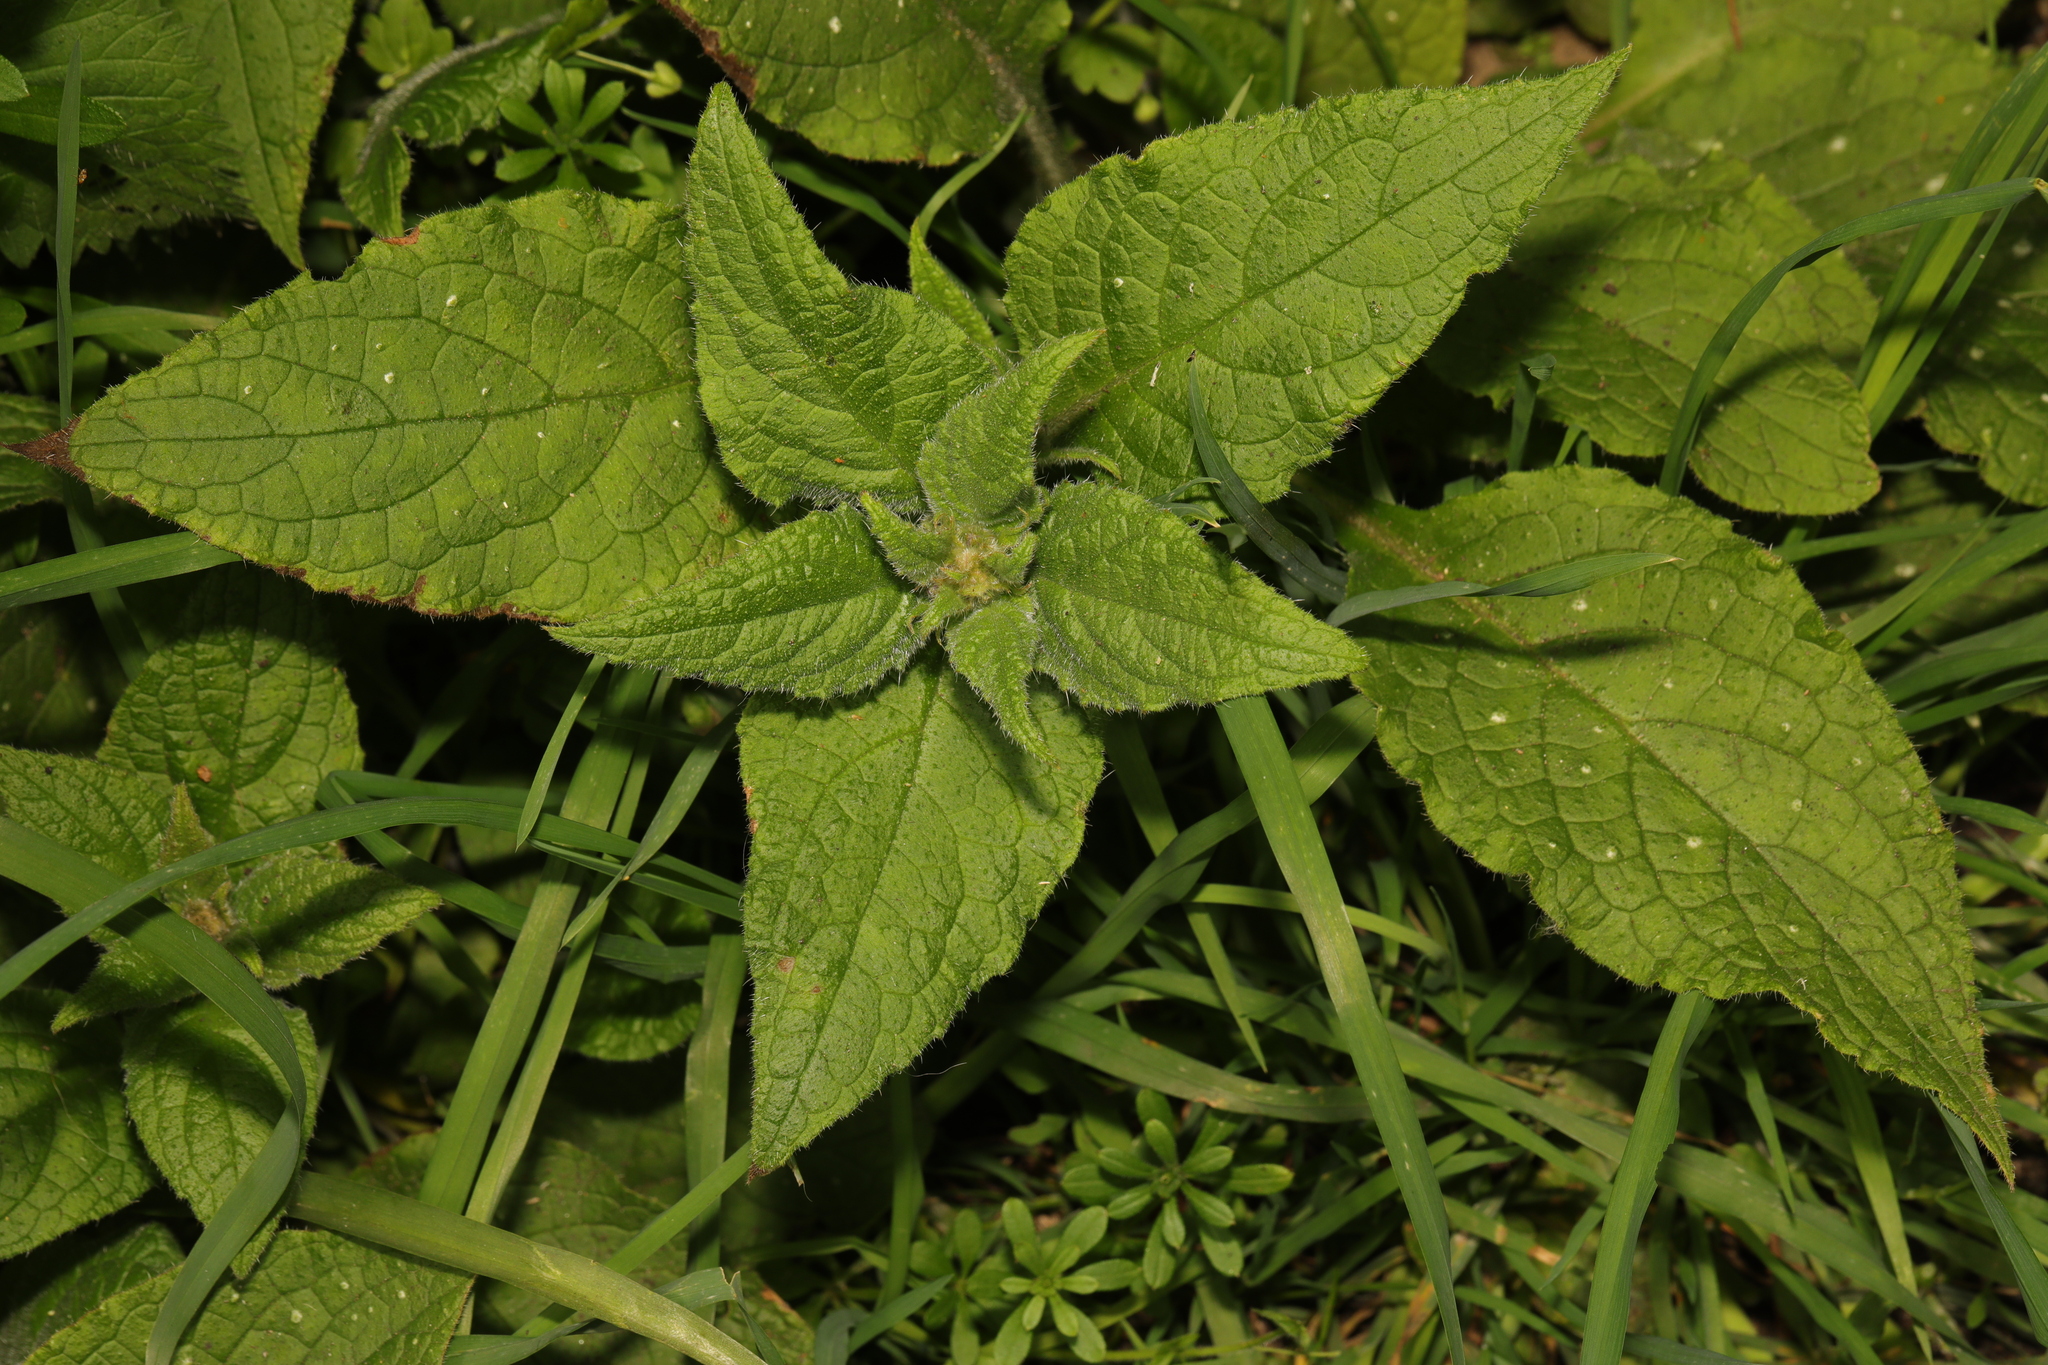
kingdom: Plantae
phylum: Tracheophyta
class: Magnoliopsida
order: Boraginales
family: Boraginaceae
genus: Pentaglottis
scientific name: Pentaglottis sempervirens
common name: Green alkanet
